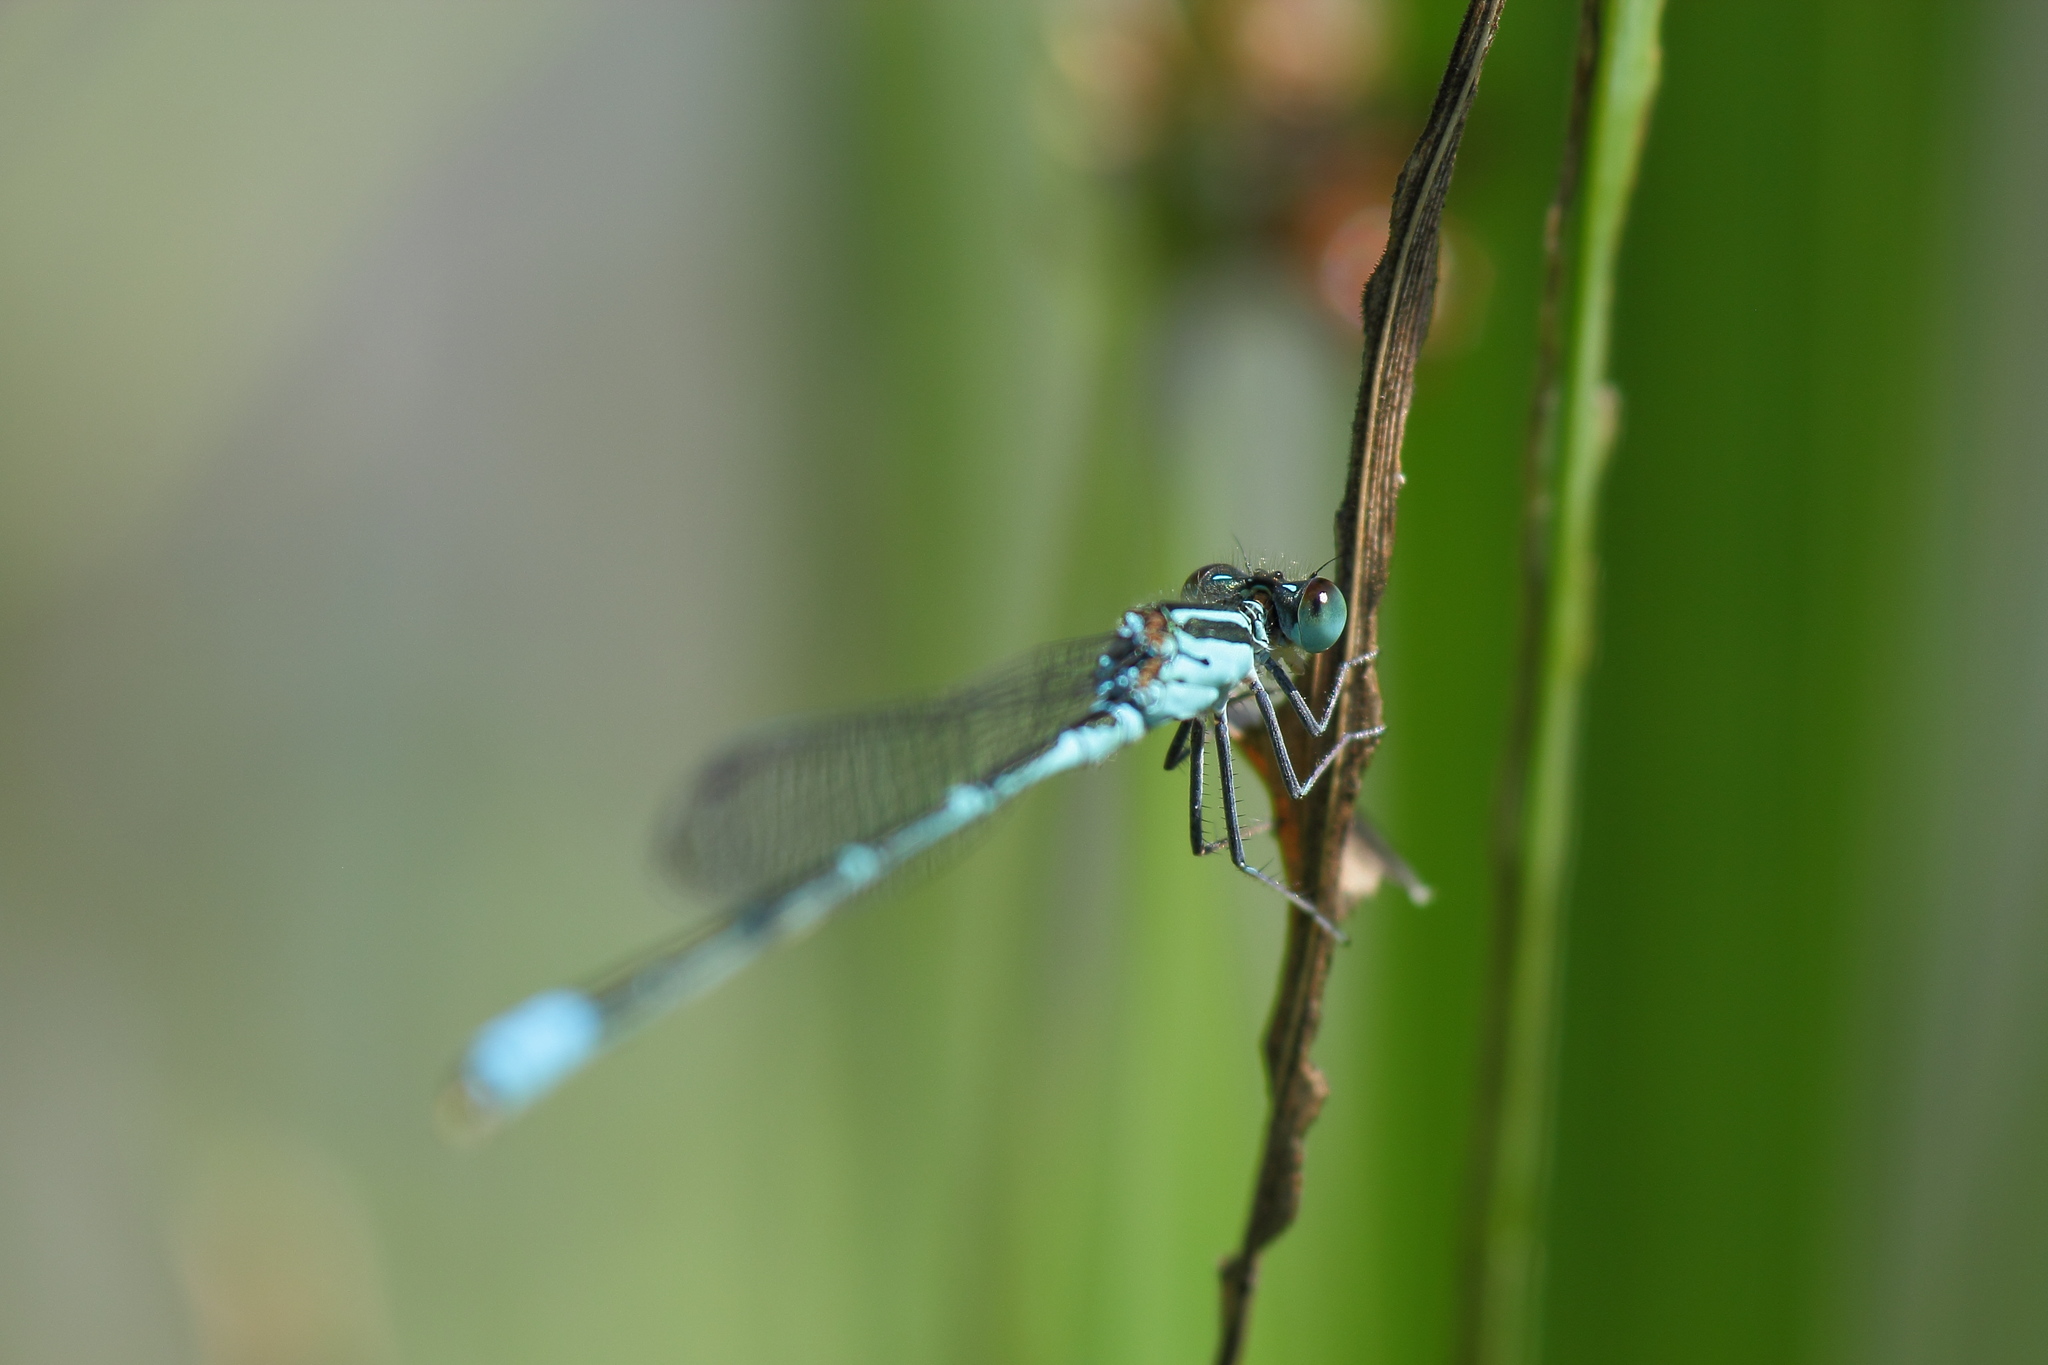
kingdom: Animalia
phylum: Arthropoda
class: Insecta
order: Odonata
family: Coenagrionidae
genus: Paracercion
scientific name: Paracercion melanotum
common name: Eastern lilysquatter
